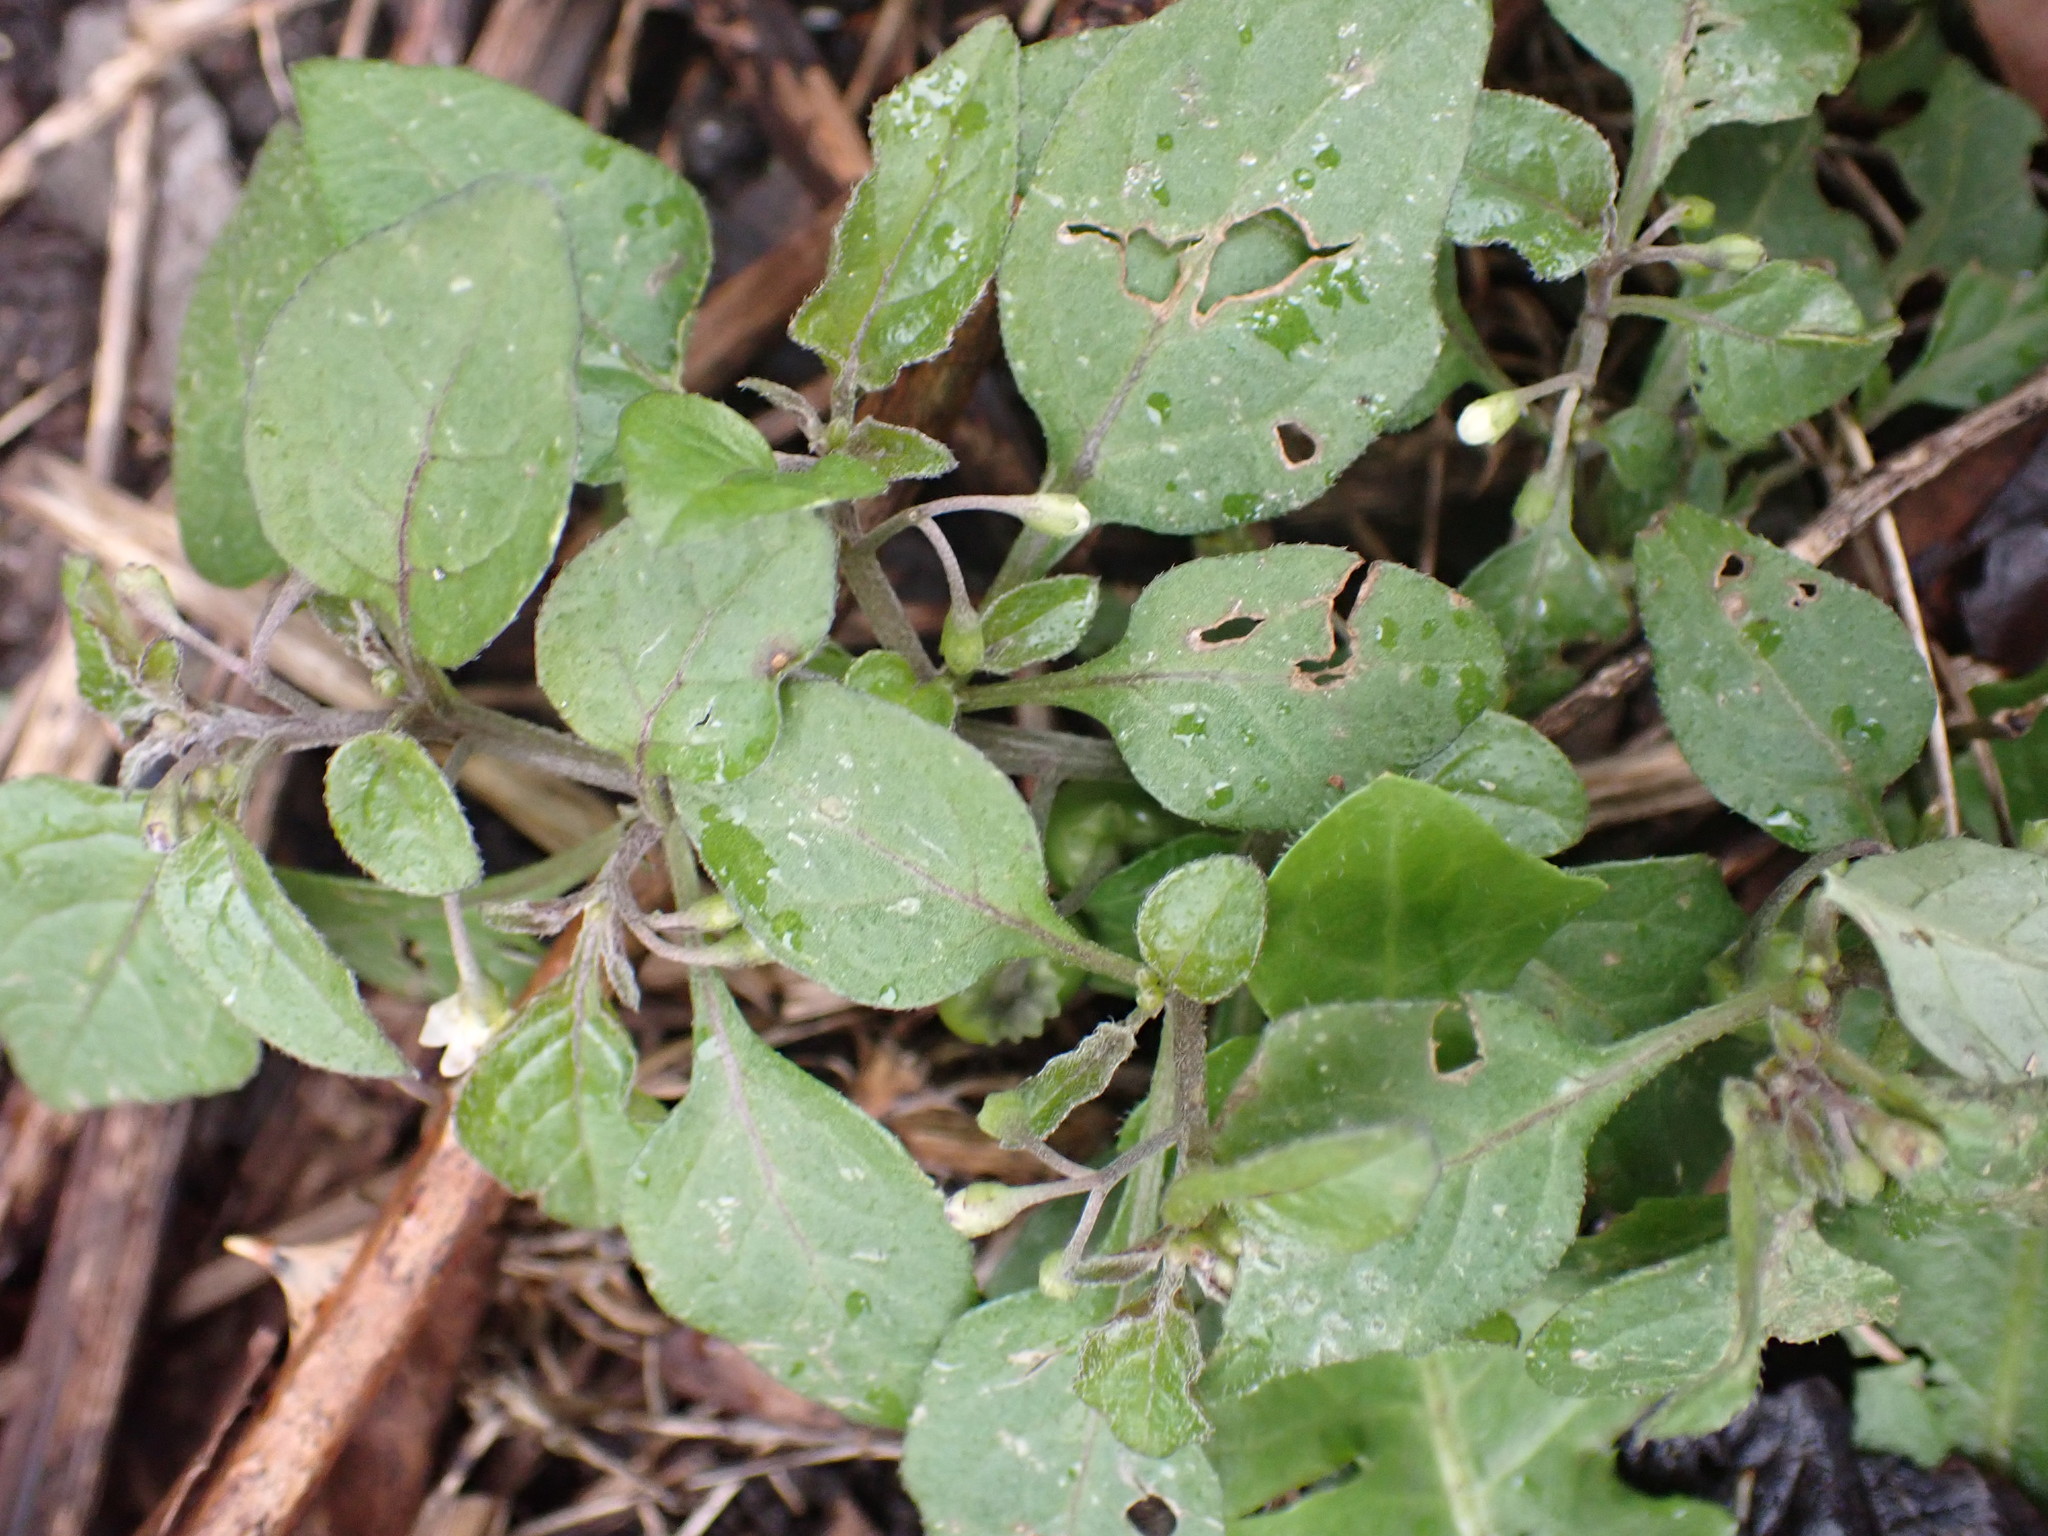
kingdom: Plantae
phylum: Tracheophyta
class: Magnoliopsida
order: Solanales
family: Solanaceae
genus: Solanum
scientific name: Solanum nigrum
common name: Black nightshade
